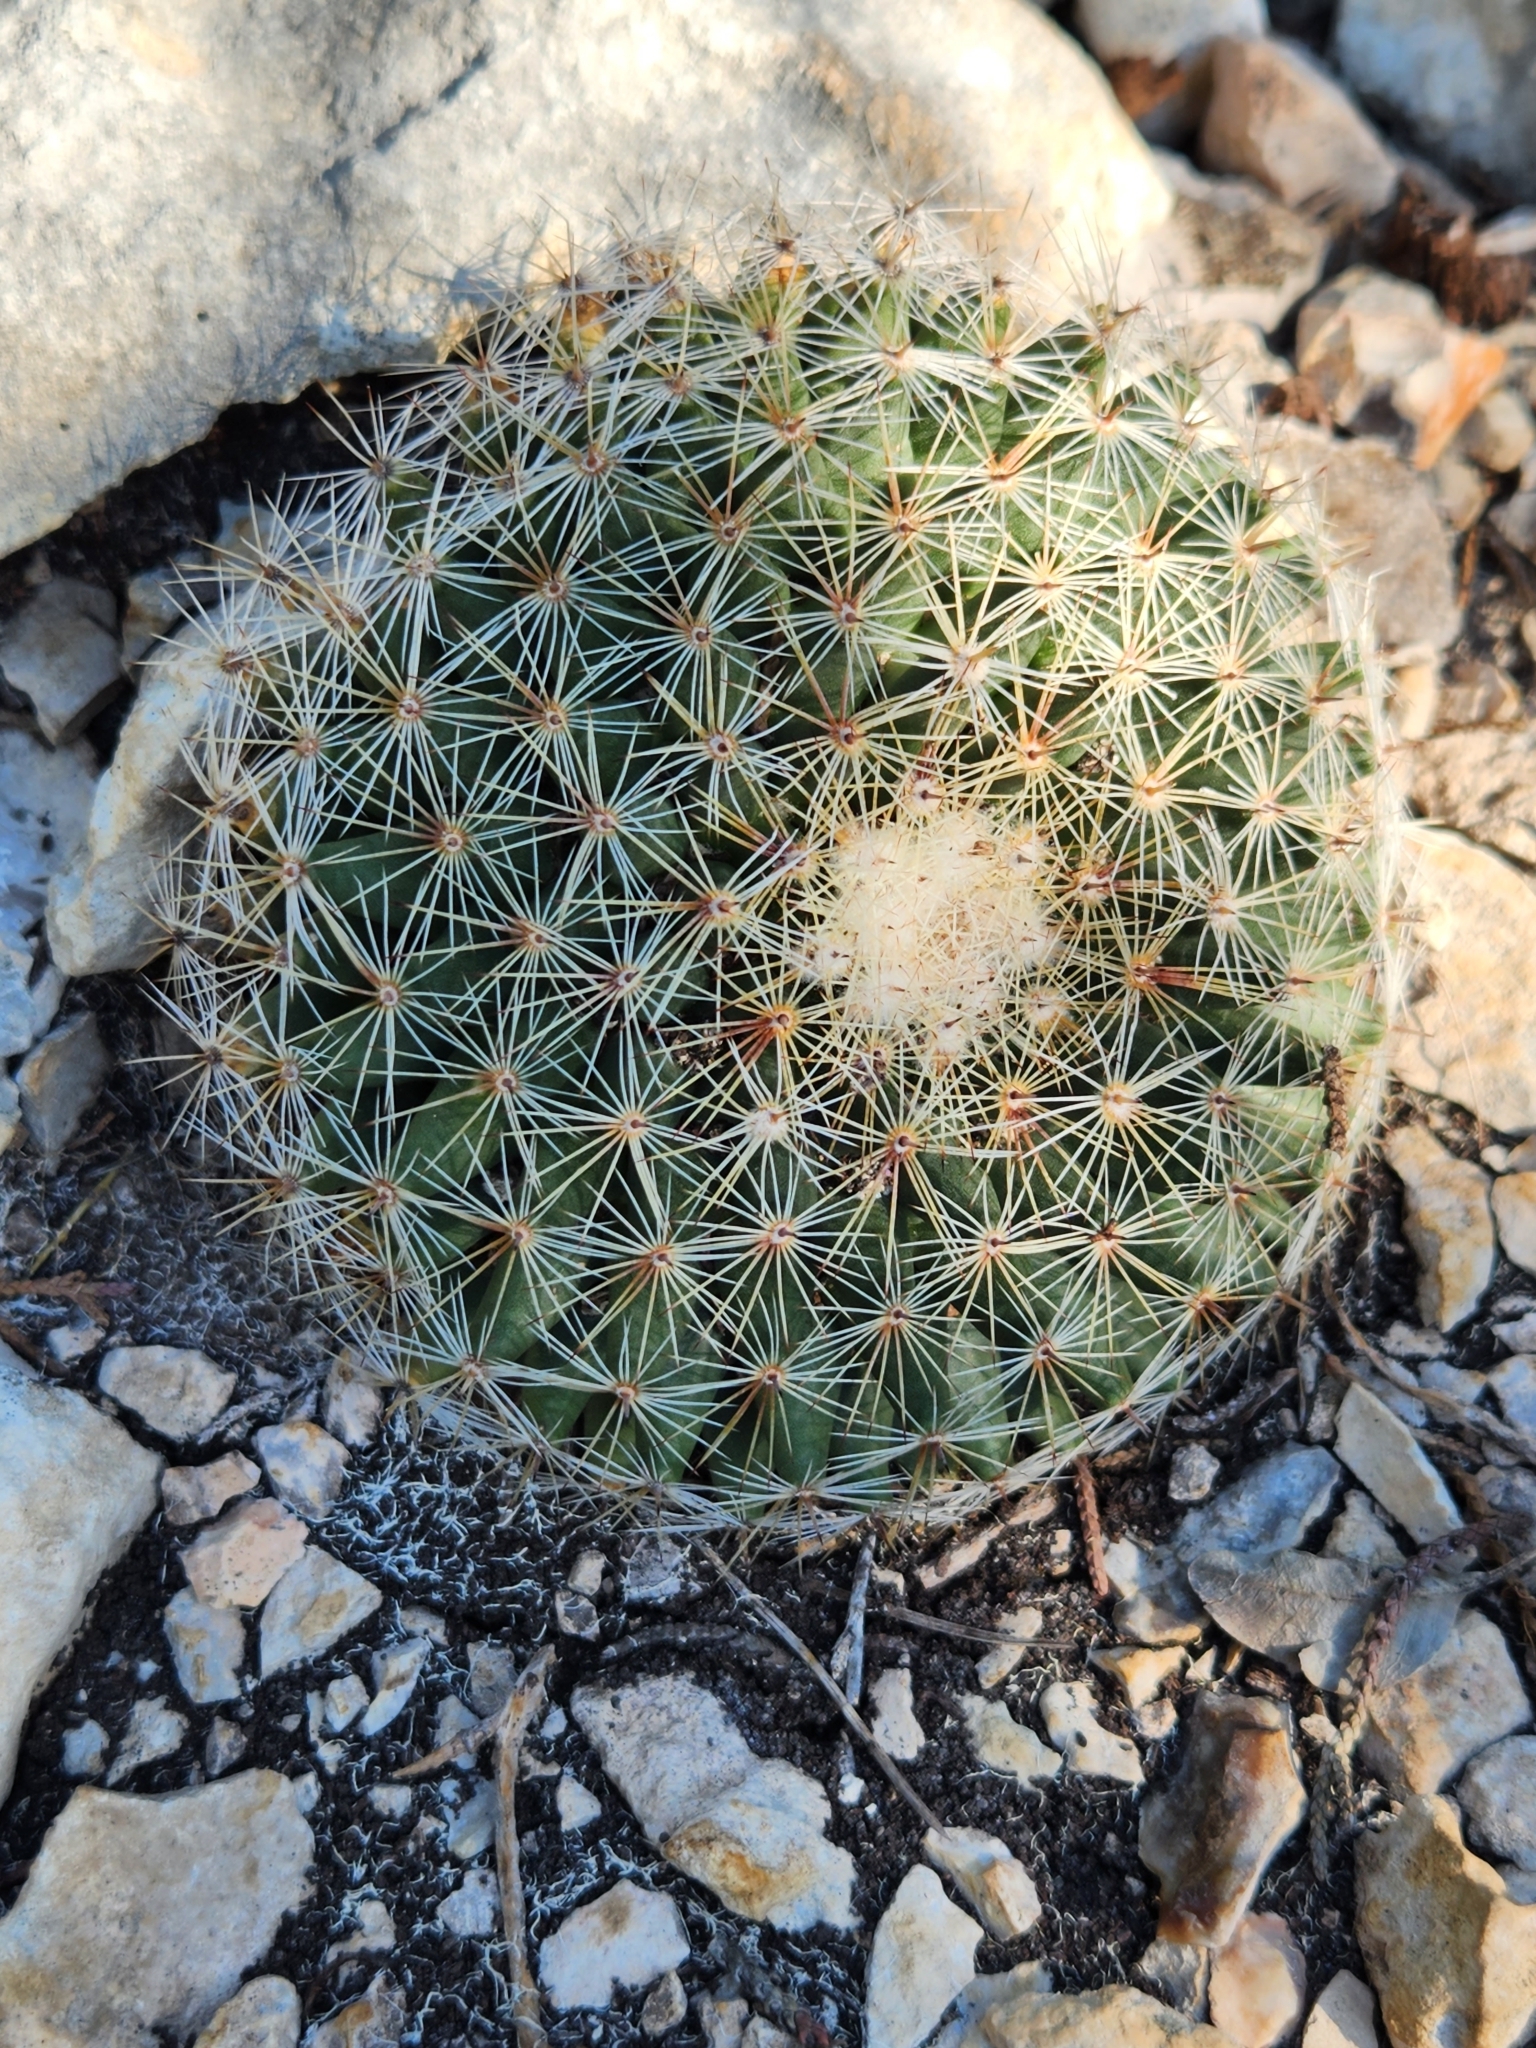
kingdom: Plantae
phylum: Tracheophyta
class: Magnoliopsida
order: Caryophyllales
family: Cactaceae
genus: Mammillaria
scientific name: Mammillaria heyderi
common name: Little nipple cactus
